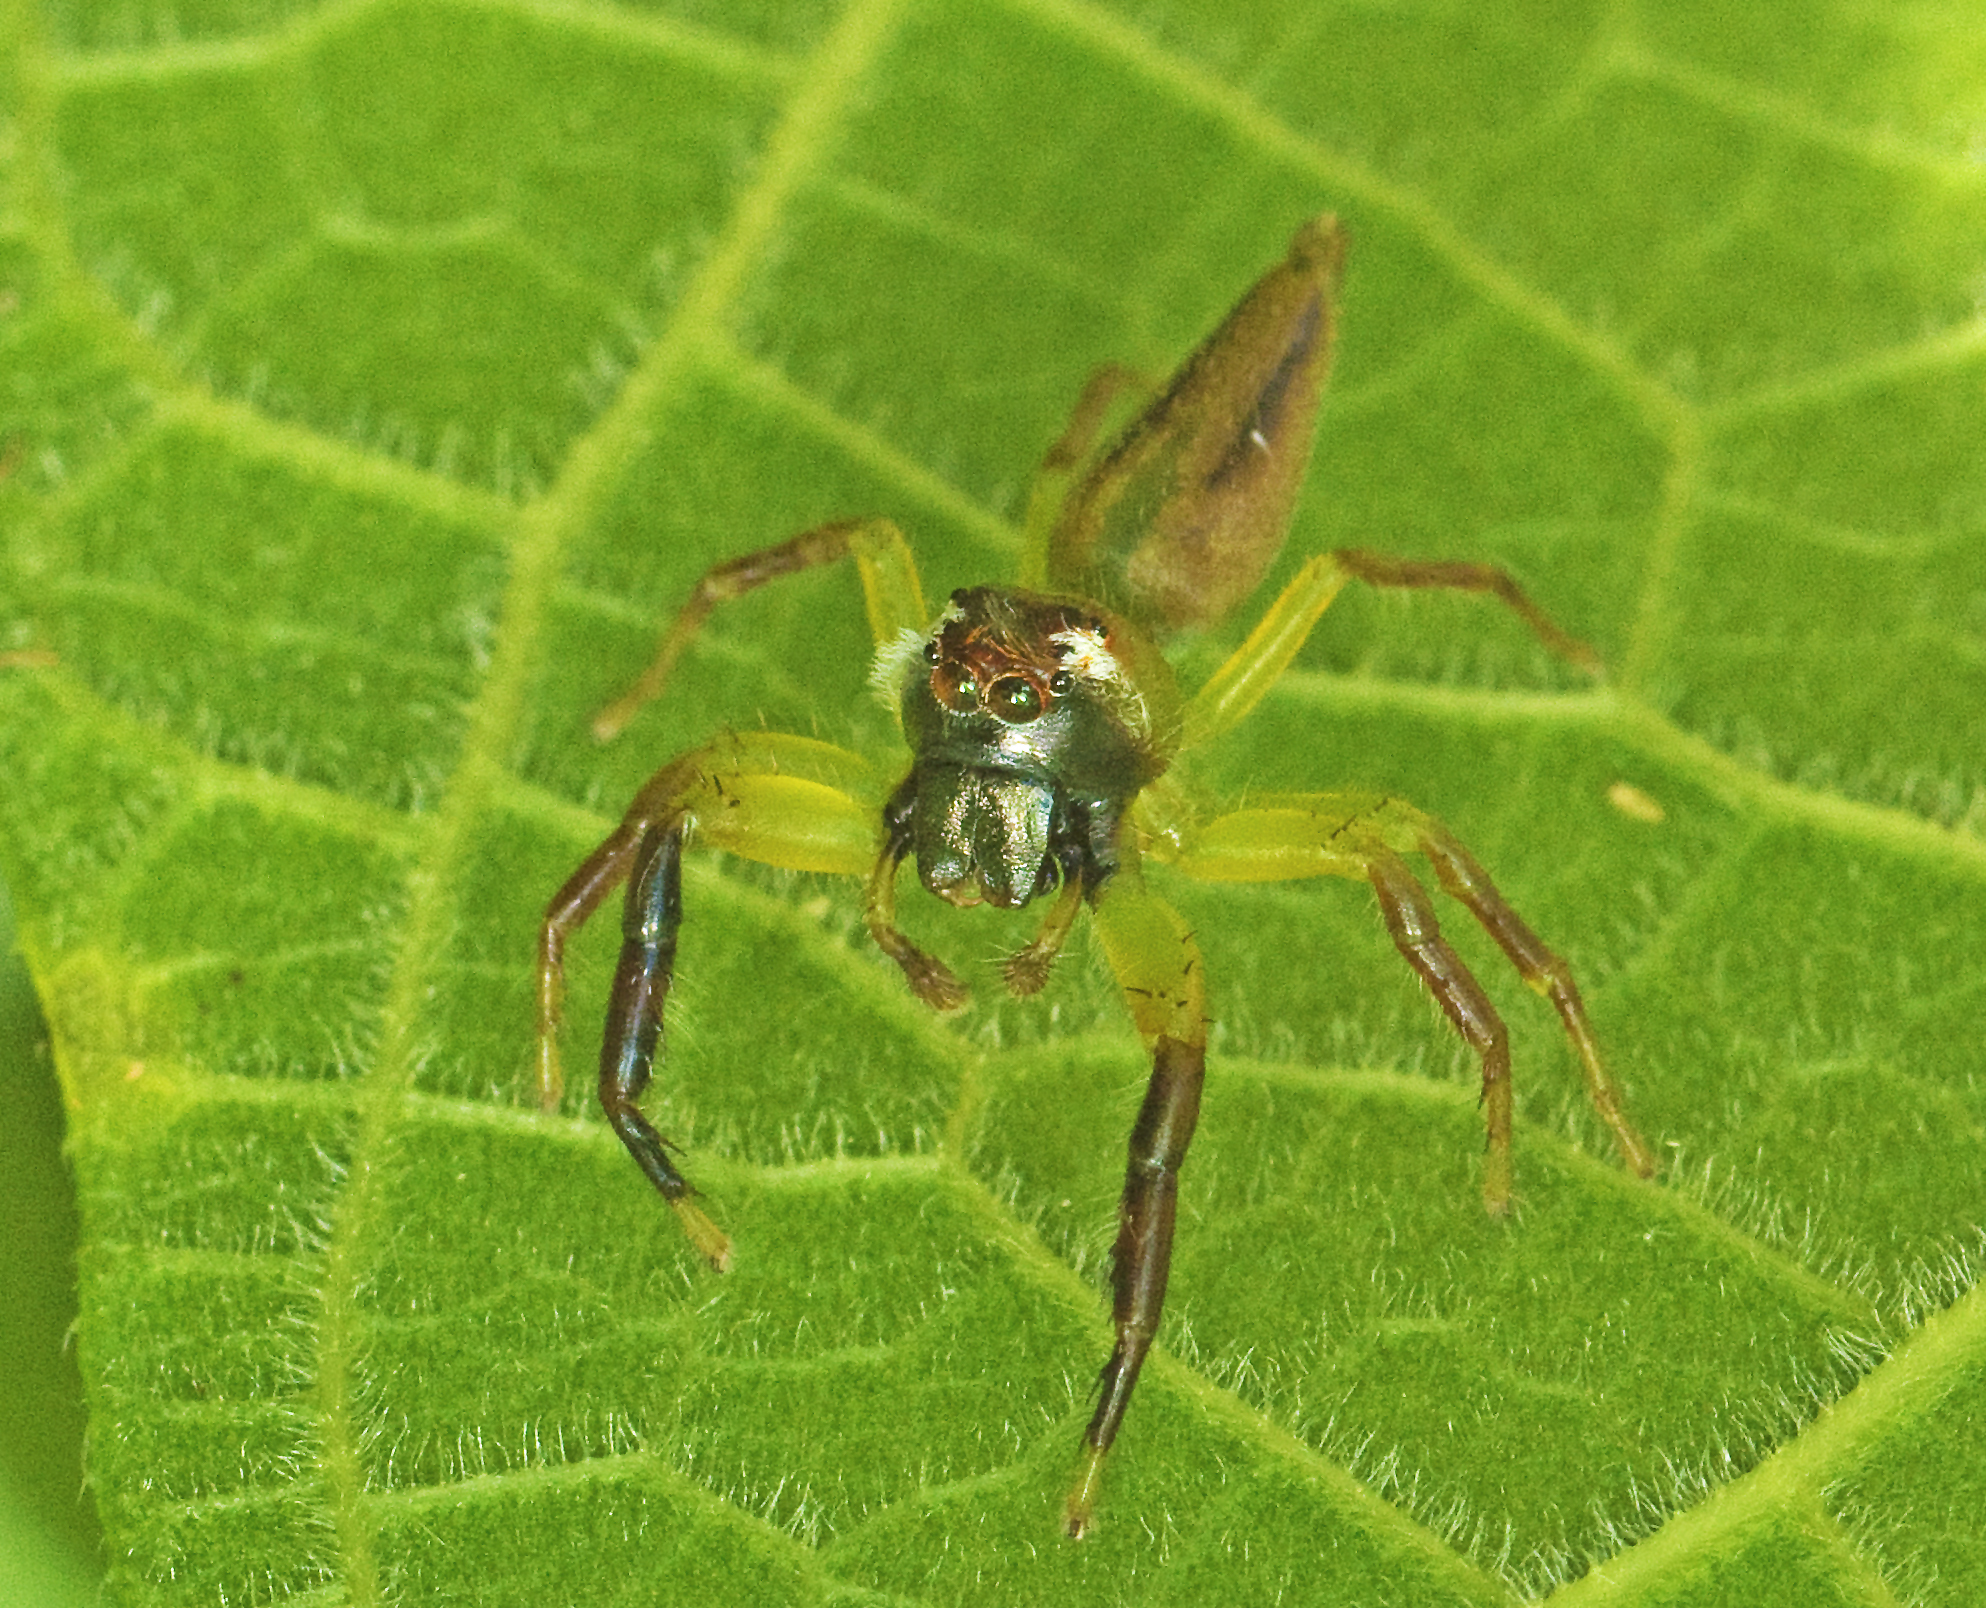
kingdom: Animalia
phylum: Arthropoda
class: Arachnida
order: Araneae
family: Salticidae
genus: Mopsus
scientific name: Mopsus mormon
